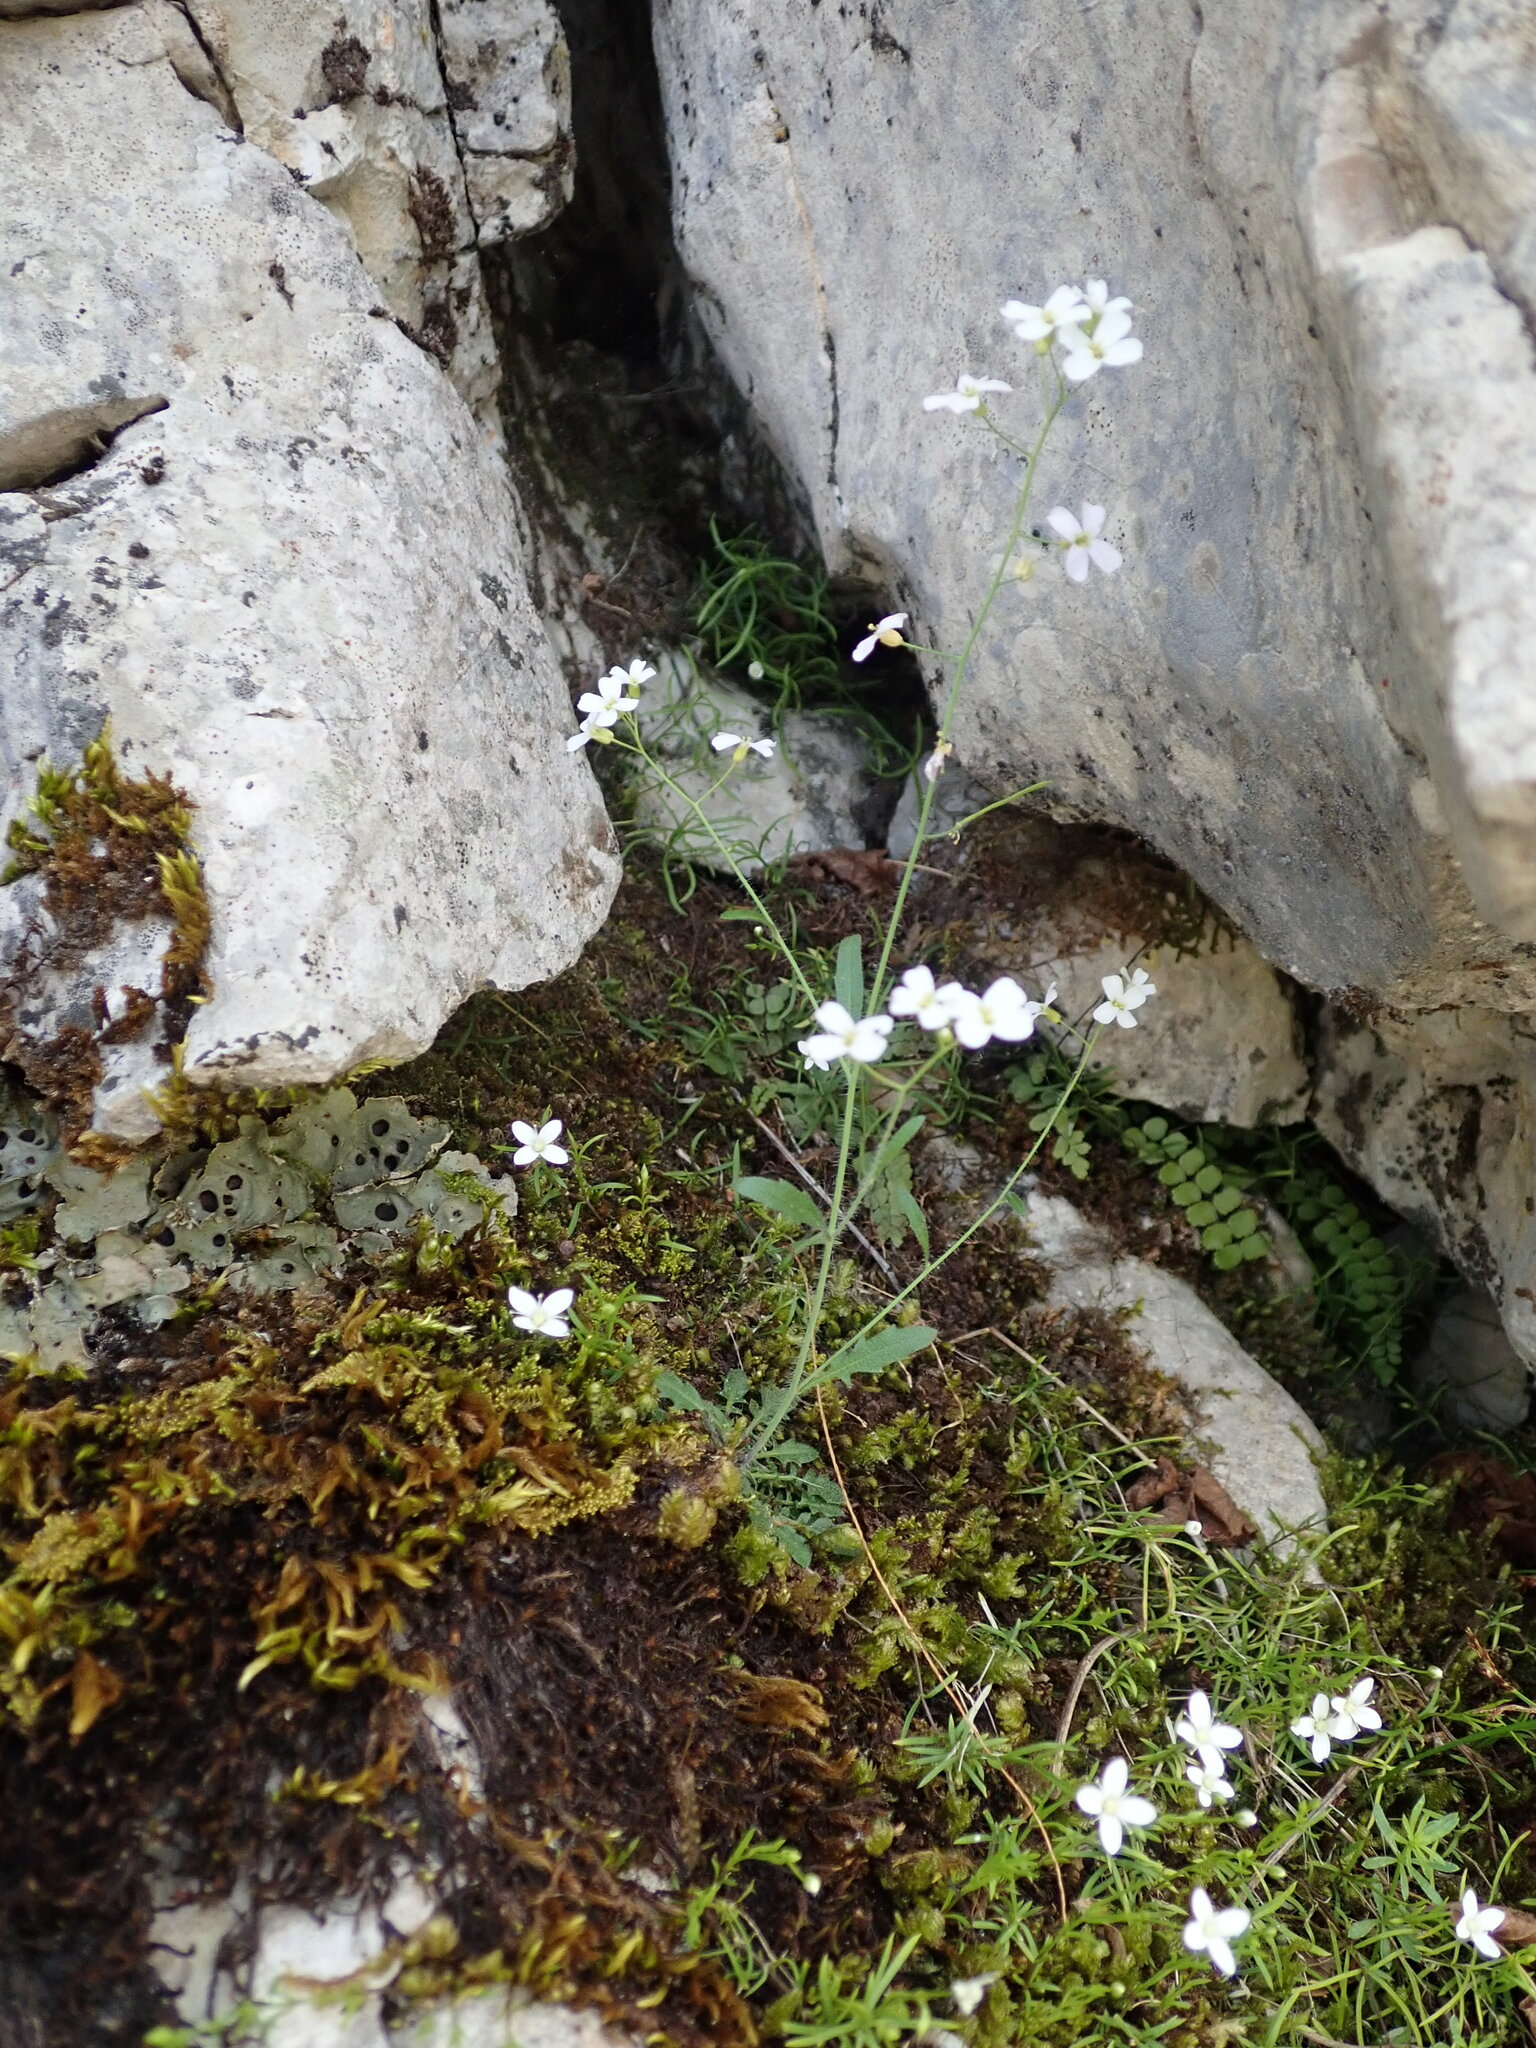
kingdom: Plantae
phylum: Tracheophyta
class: Magnoliopsida
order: Brassicales
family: Brassicaceae
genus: Arabidopsis
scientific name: Arabidopsis arenosa
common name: Sand rock-cress
